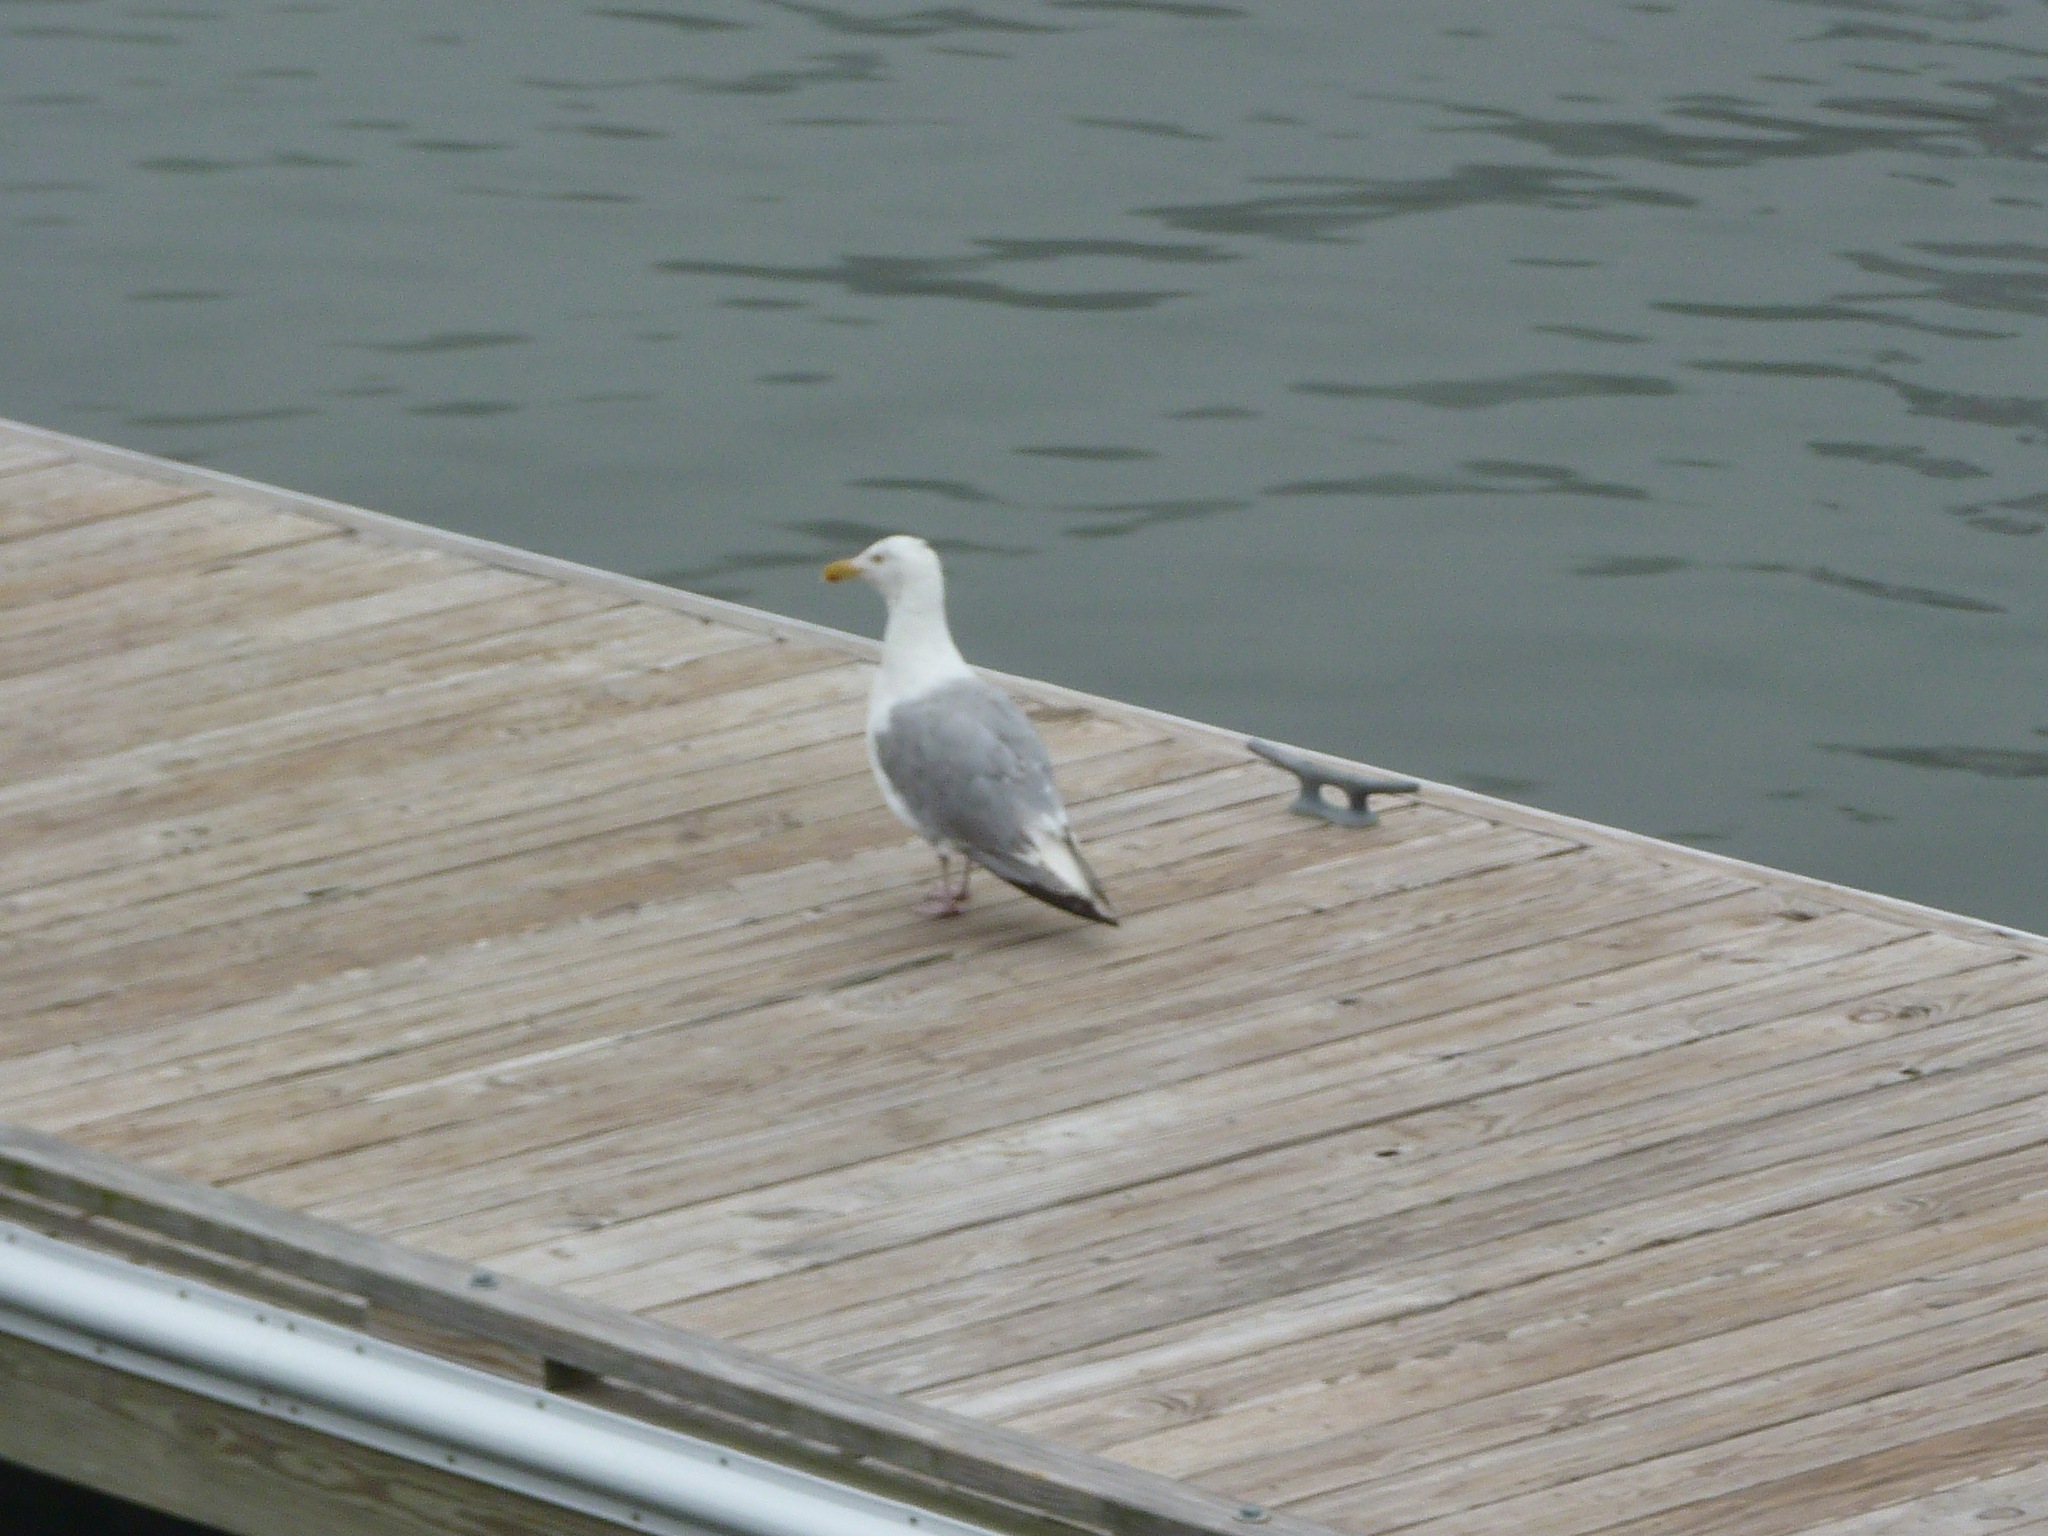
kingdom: Animalia
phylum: Chordata
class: Aves
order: Charadriiformes
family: Laridae
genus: Larus
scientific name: Larus argentatus
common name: Herring gull
